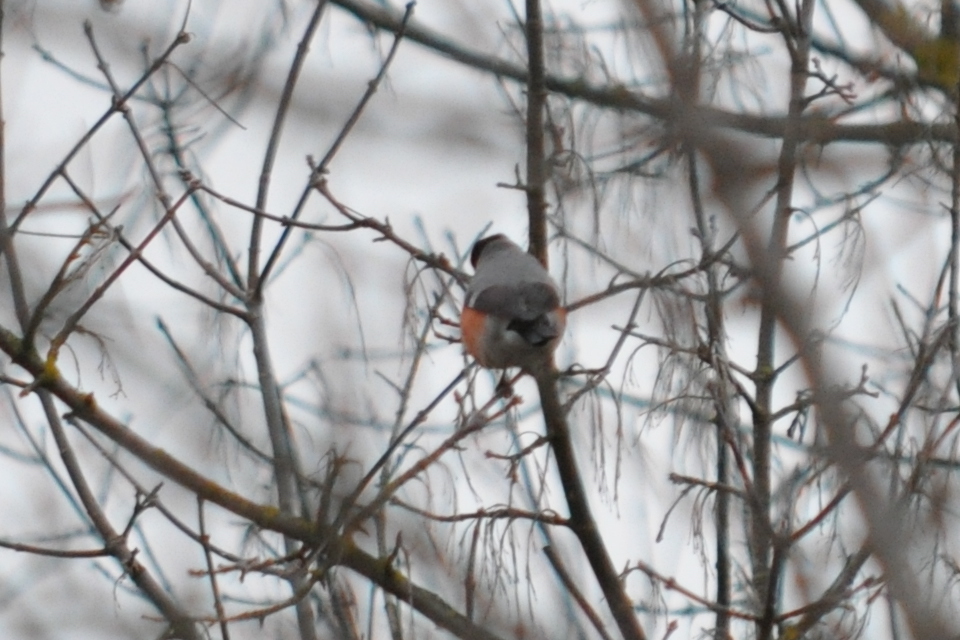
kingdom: Animalia
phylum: Chordata
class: Aves
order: Passeriformes
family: Fringillidae
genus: Pyrrhula
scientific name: Pyrrhula pyrrhula
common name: Eurasian bullfinch
